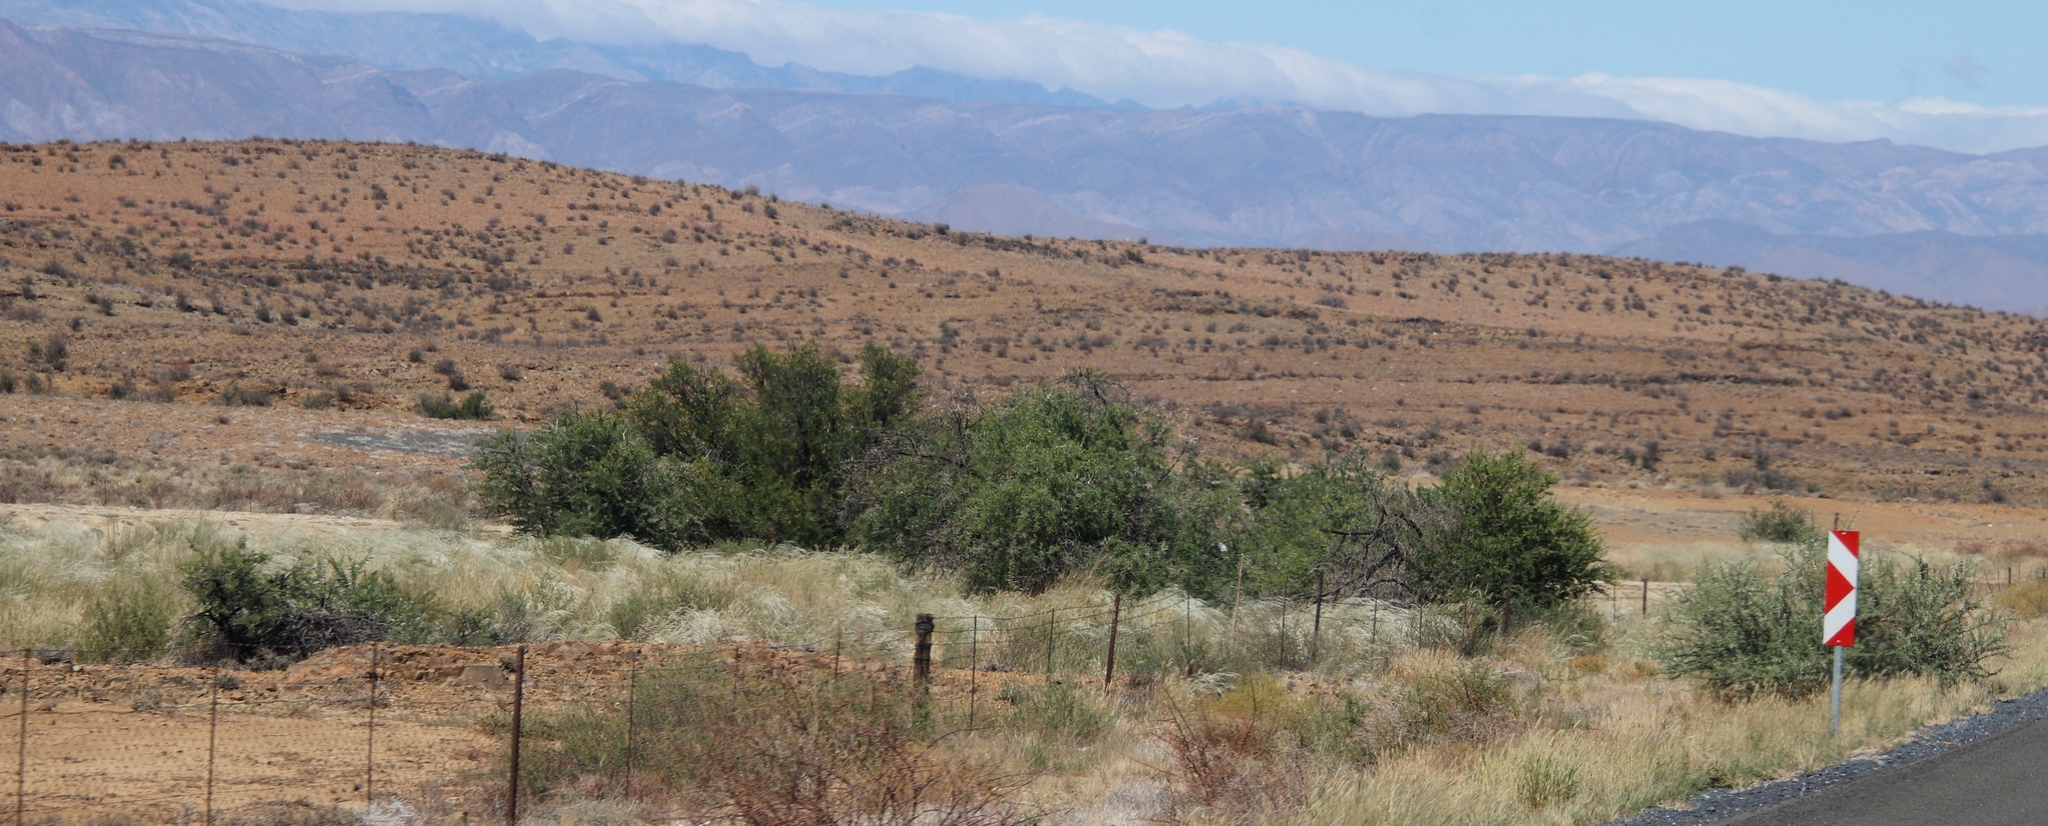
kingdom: Plantae
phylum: Tracheophyta
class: Magnoliopsida
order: Fabales
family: Fabaceae
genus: Vachellia
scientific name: Vachellia karroo
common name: Sweet thorn
